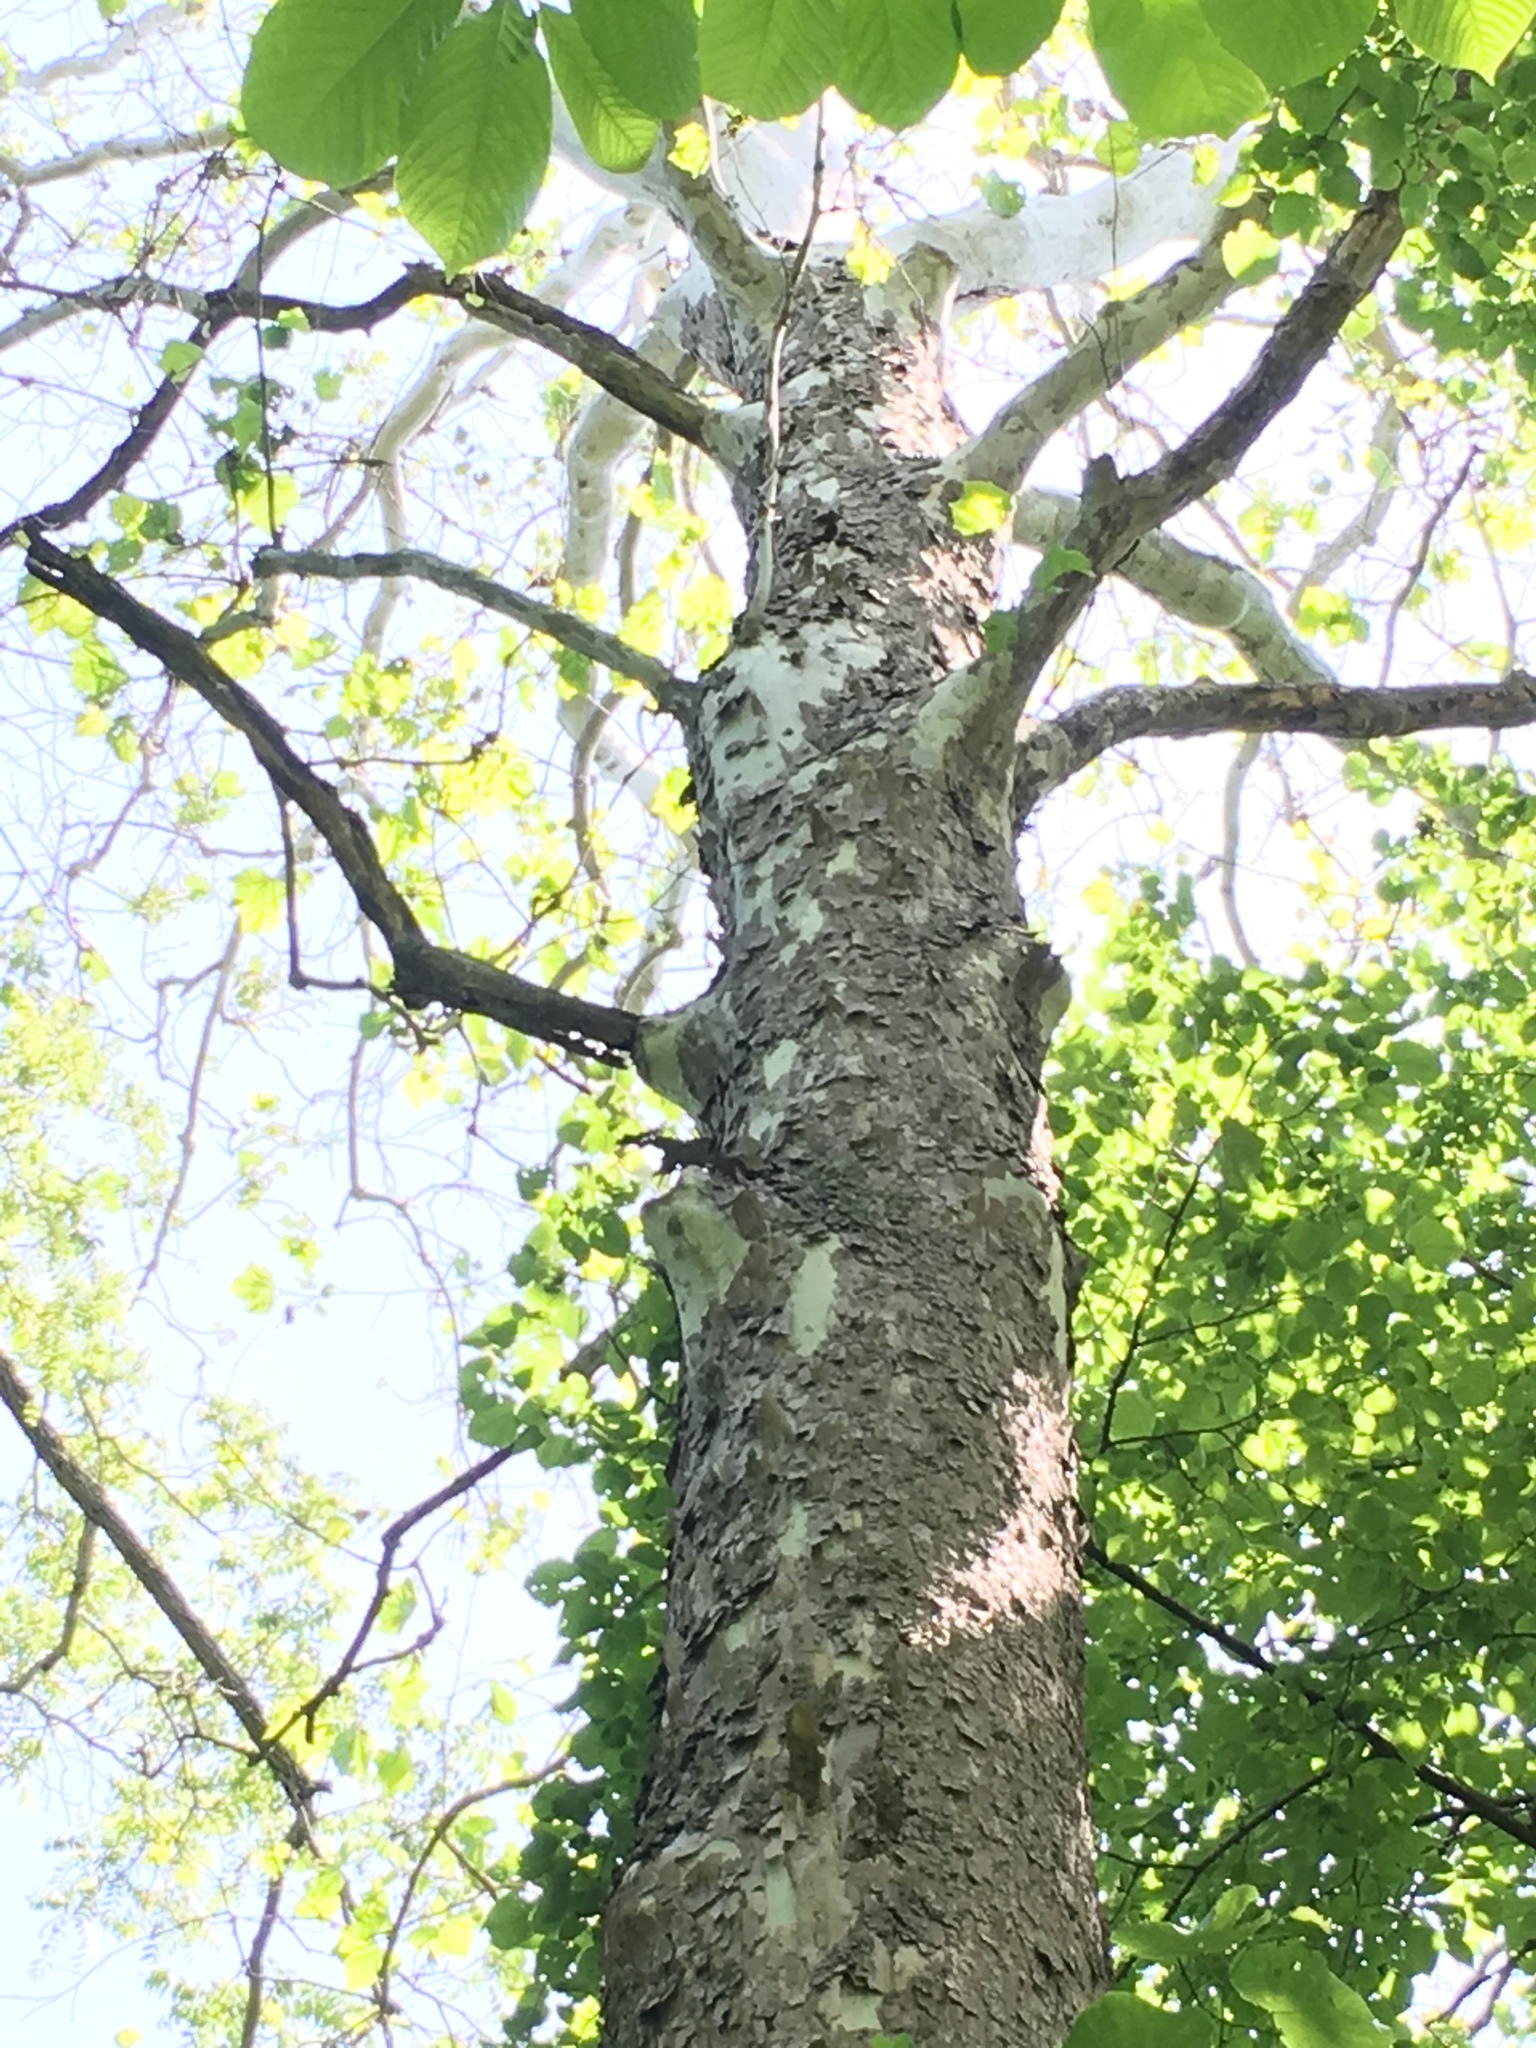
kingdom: Plantae
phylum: Tracheophyta
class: Magnoliopsida
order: Proteales
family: Platanaceae
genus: Platanus
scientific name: Platanus occidentalis
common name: American sycamore
